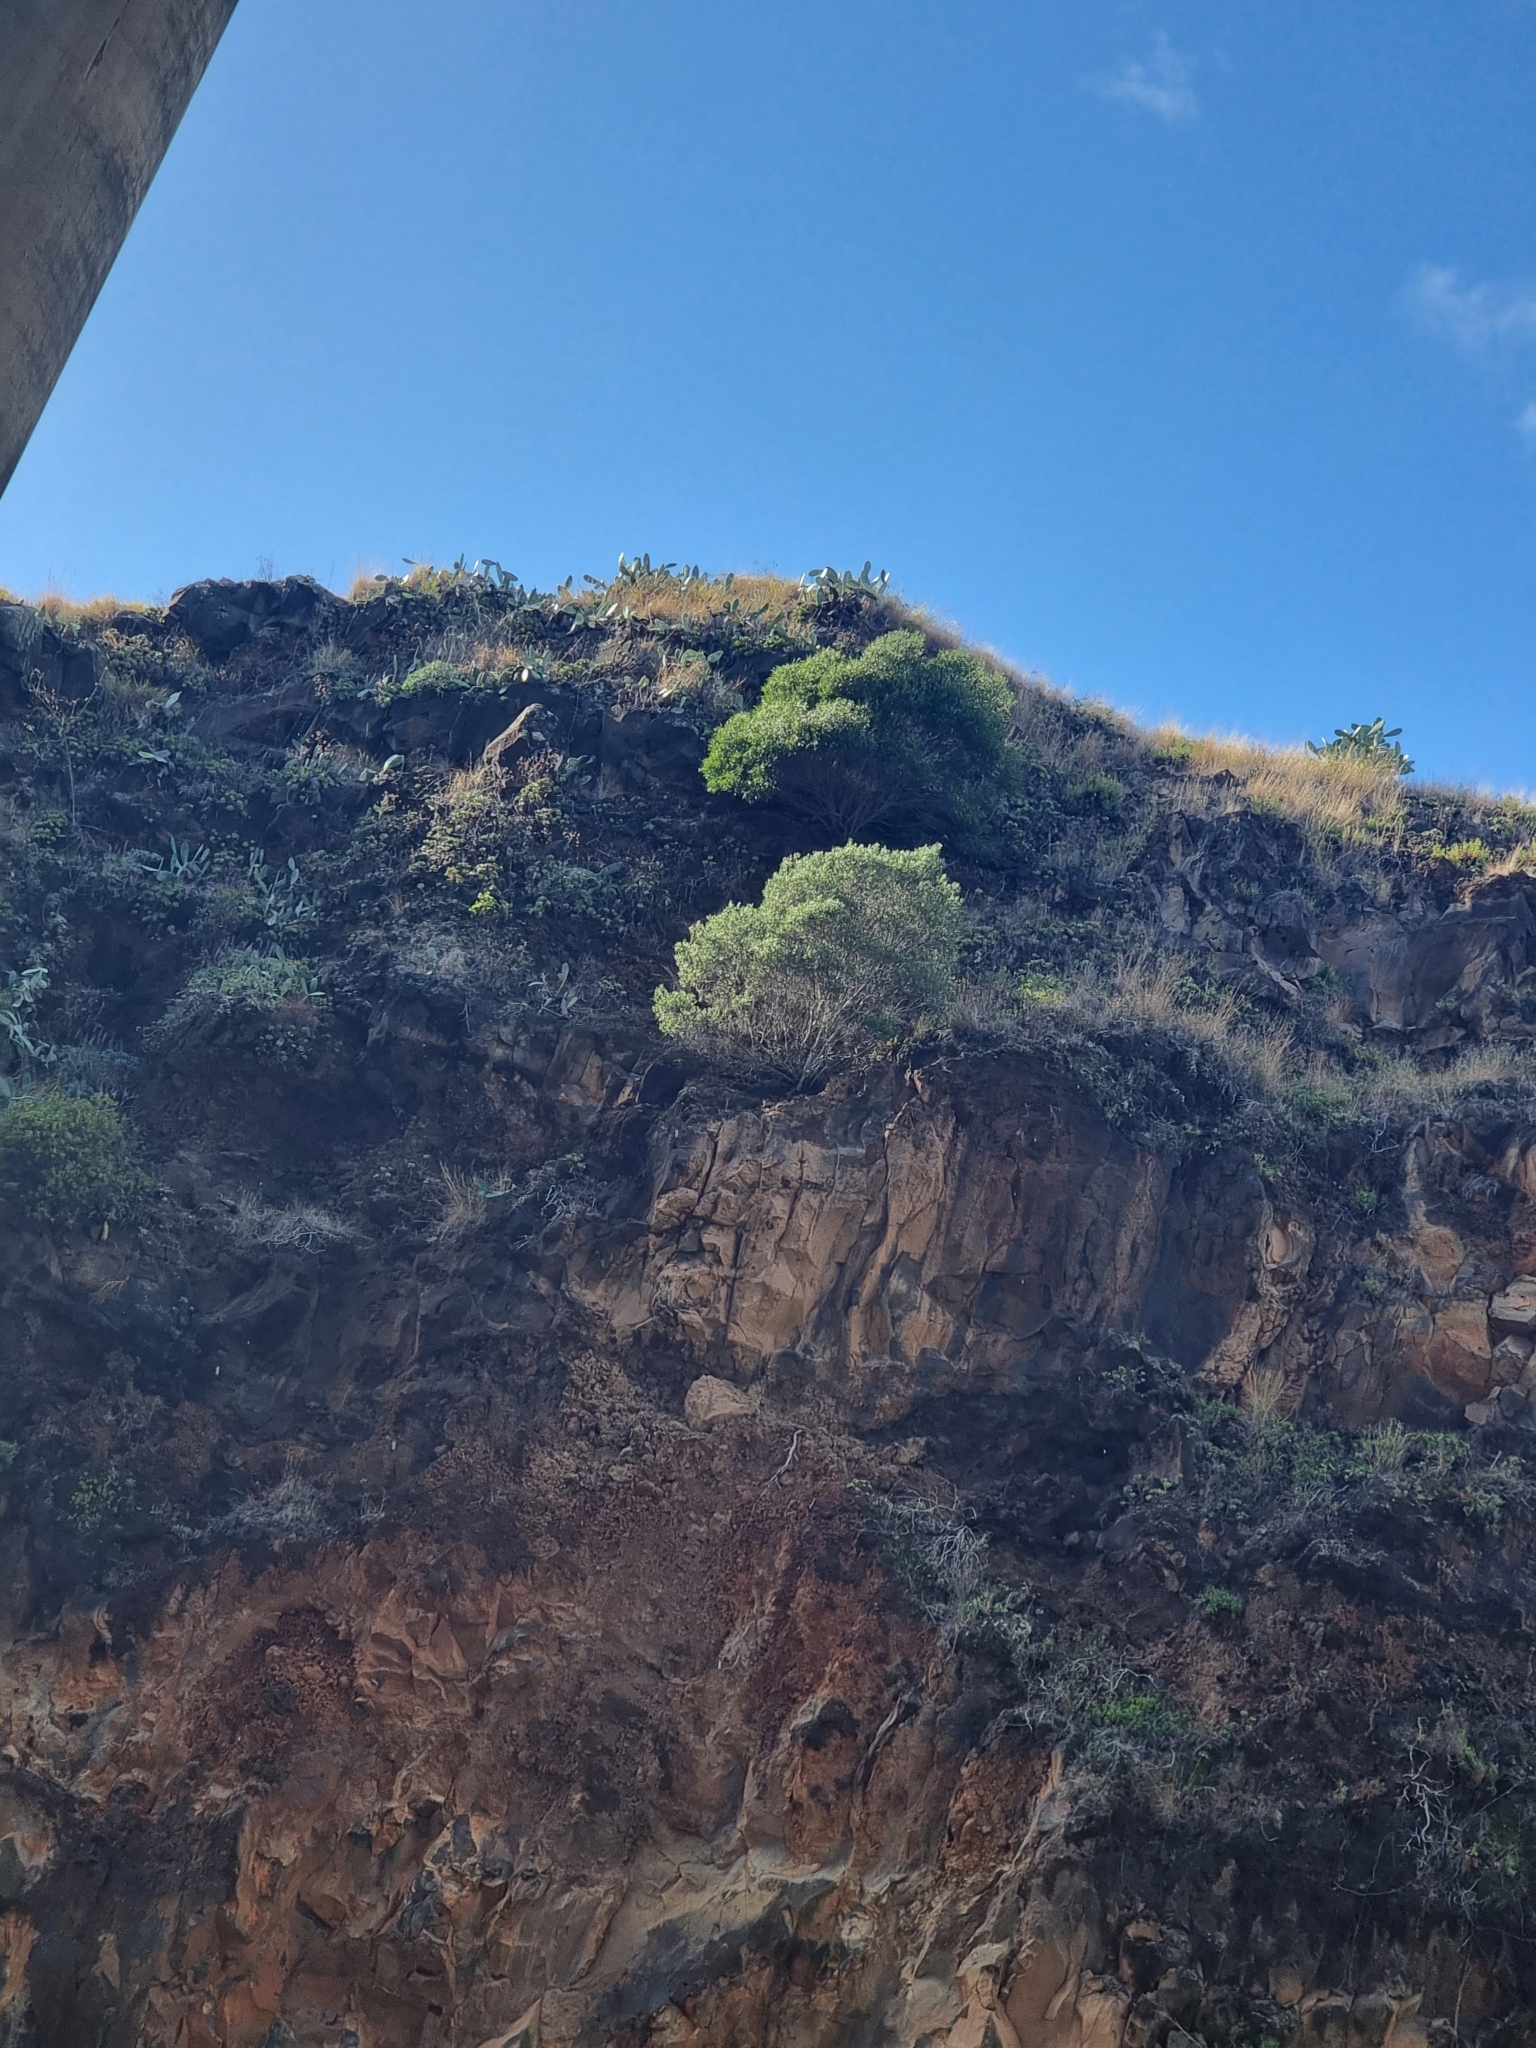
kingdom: Plantae
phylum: Tracheophyta
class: Magnoliopsida
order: Lamiales
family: Oleaceae
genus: Olea
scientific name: Olea europaea
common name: Olive
